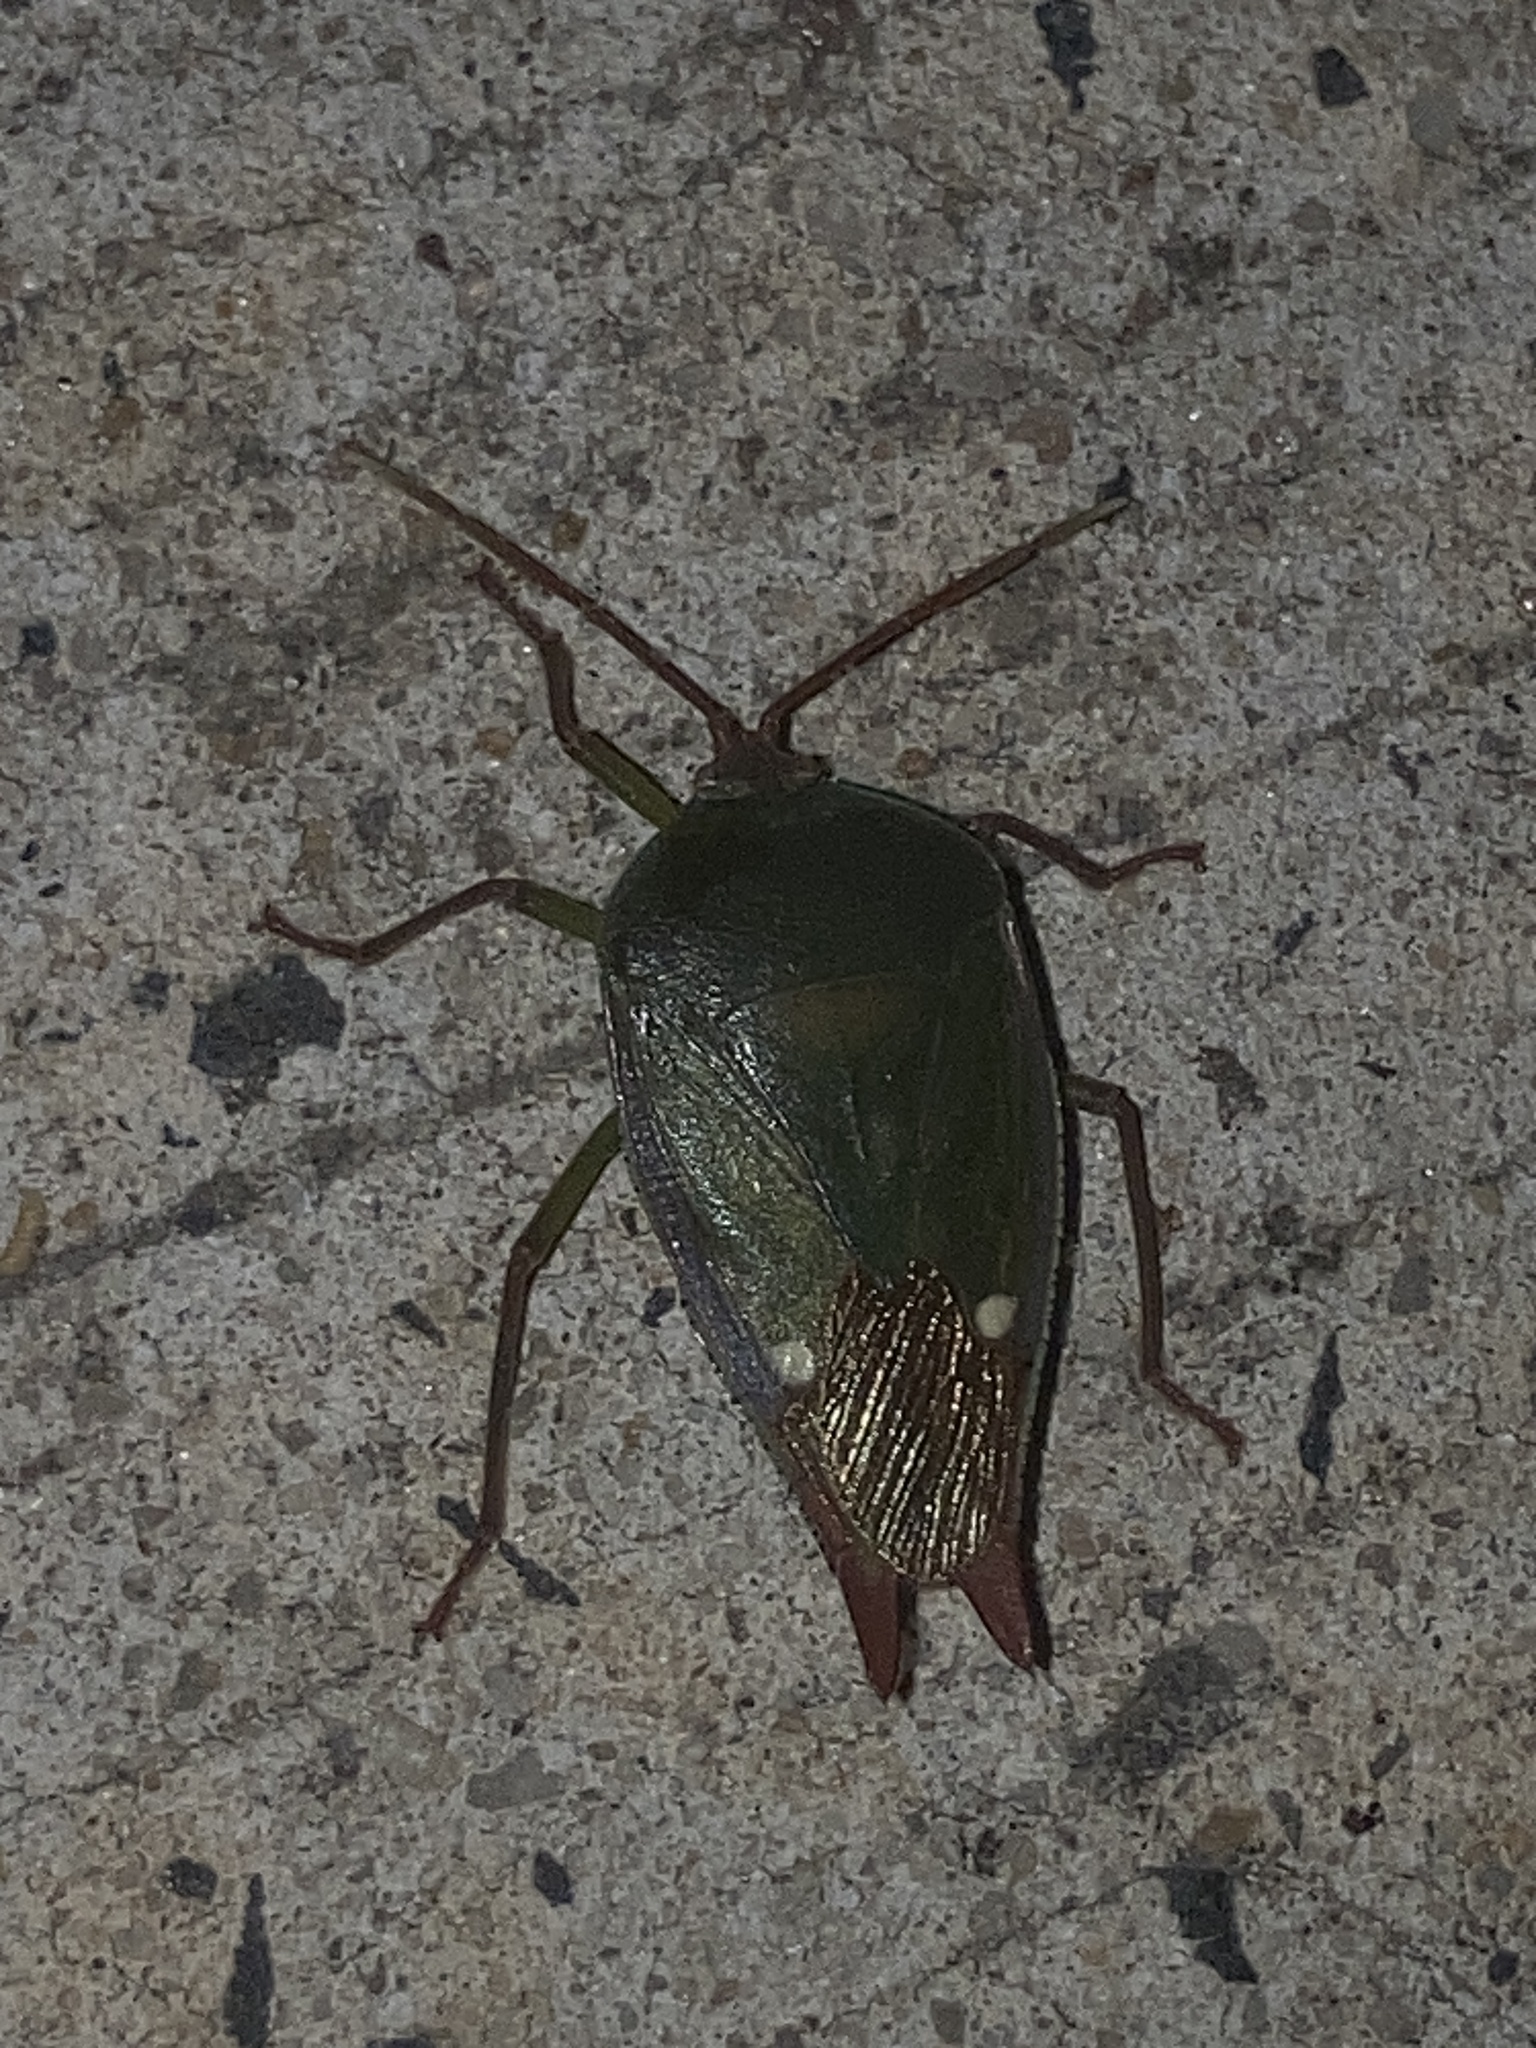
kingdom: Animalia
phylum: Arthropoda
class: Insecta
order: Hemiptera
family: Tessaratomidae
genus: Lyramorpha
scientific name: Lyramorpha rosea
